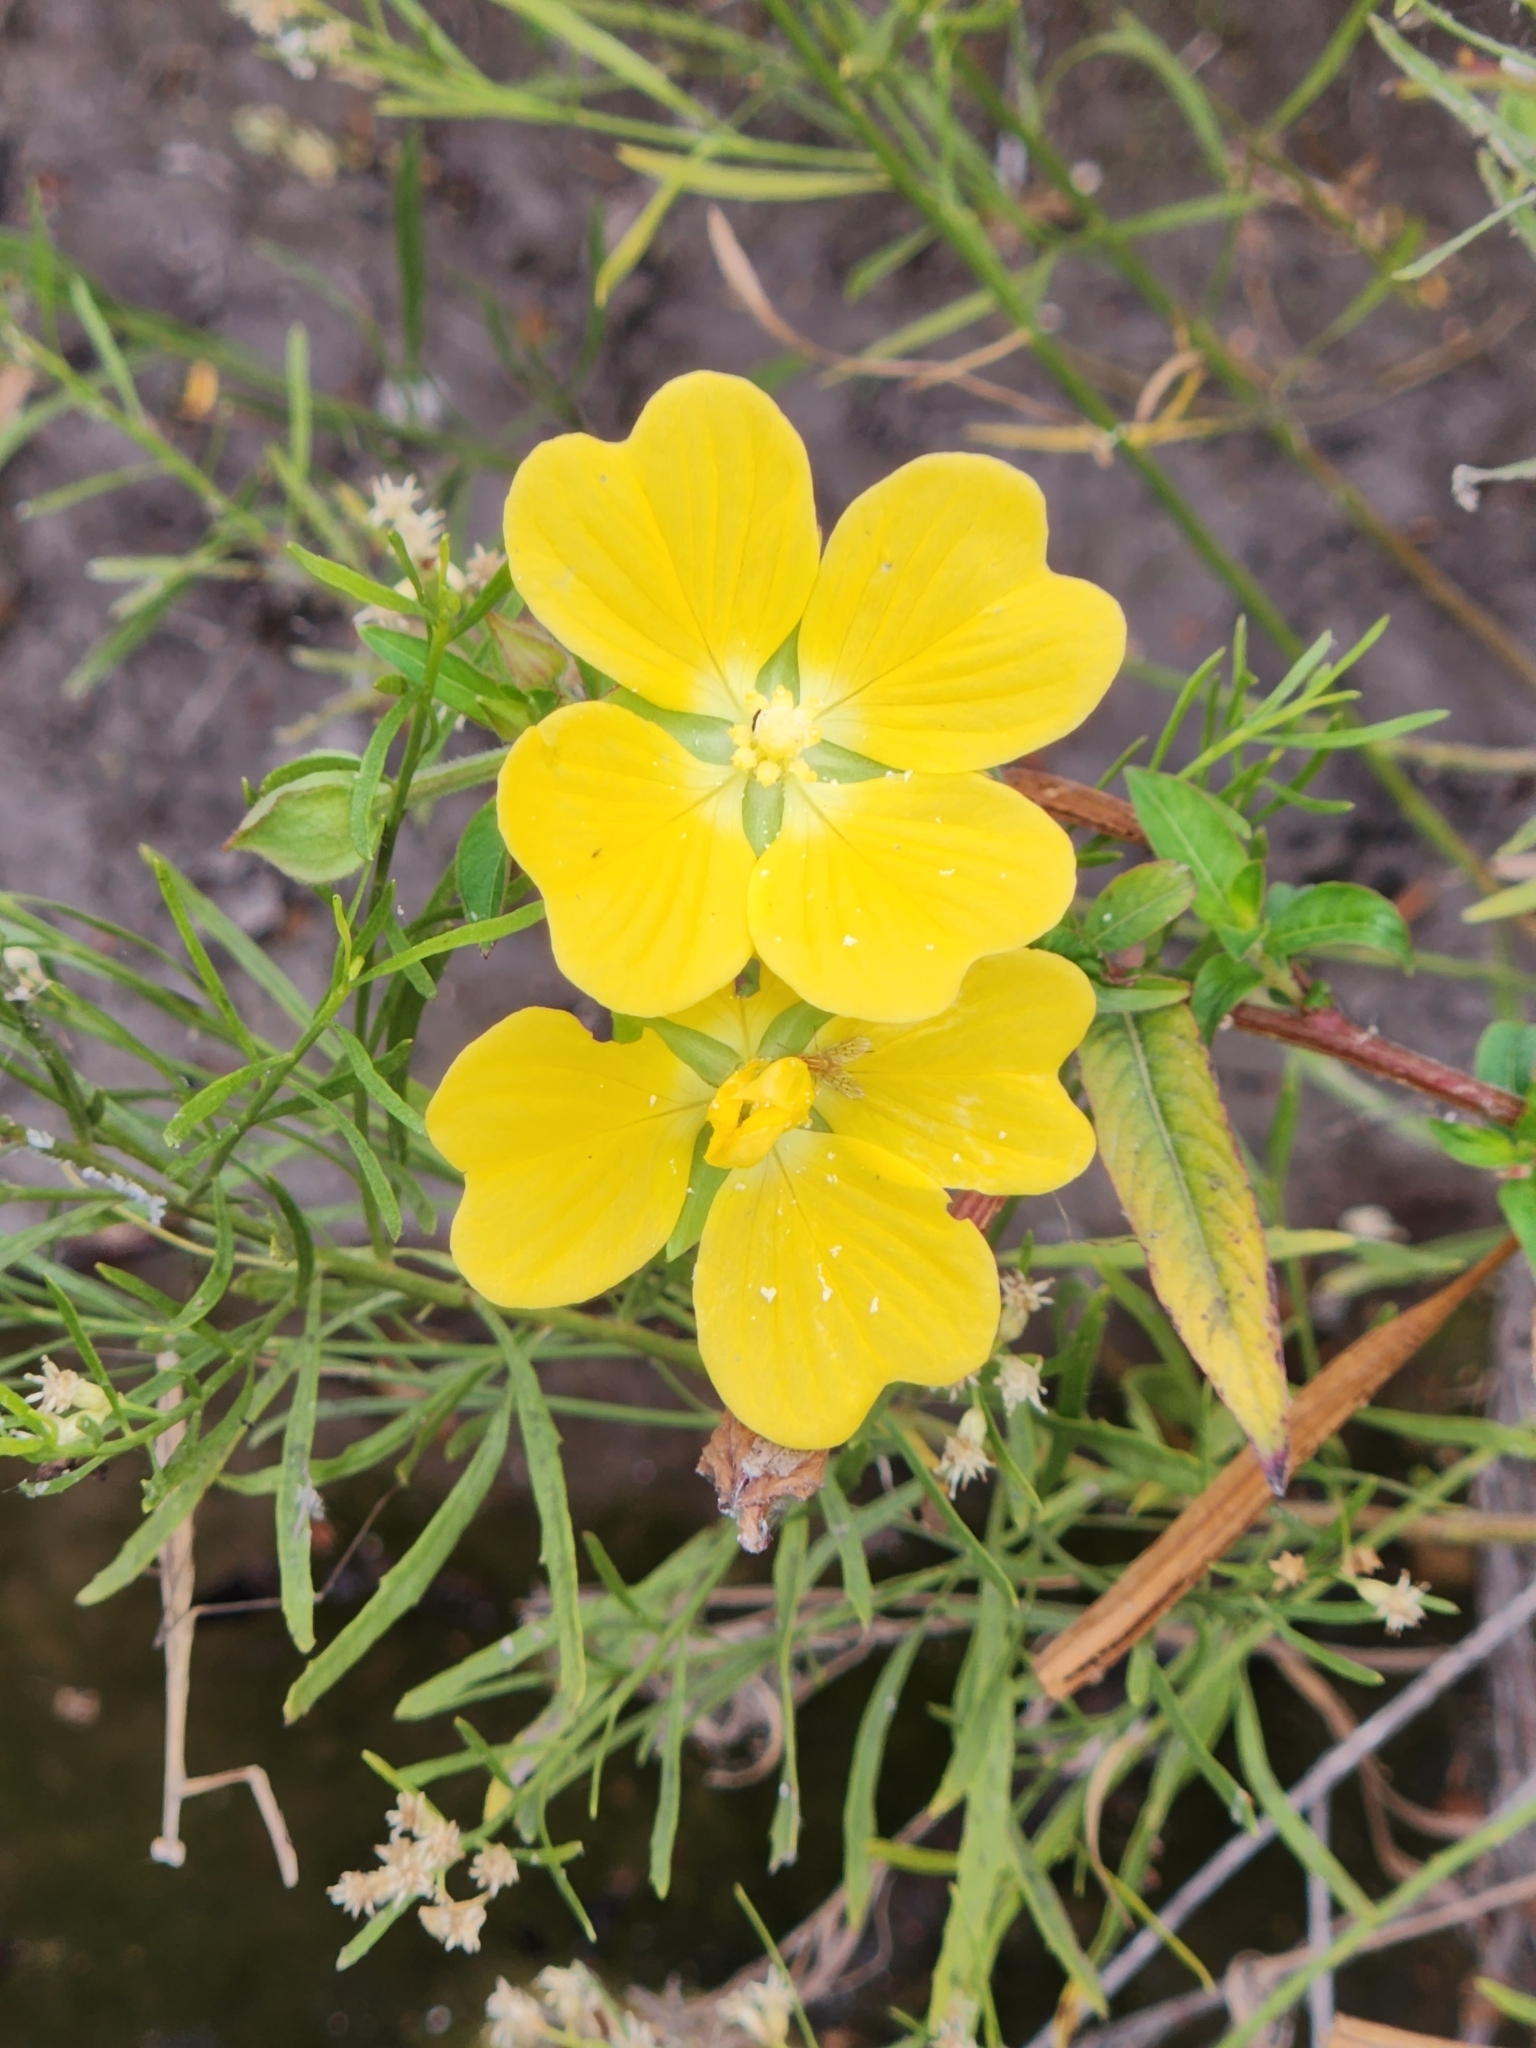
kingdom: Plantae
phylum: Tracheophyta
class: Magnoliopsida
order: Myrtales
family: Onagraceae
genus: Ludwigia
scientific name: Ludwigia octovalvis
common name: Water-primrose
